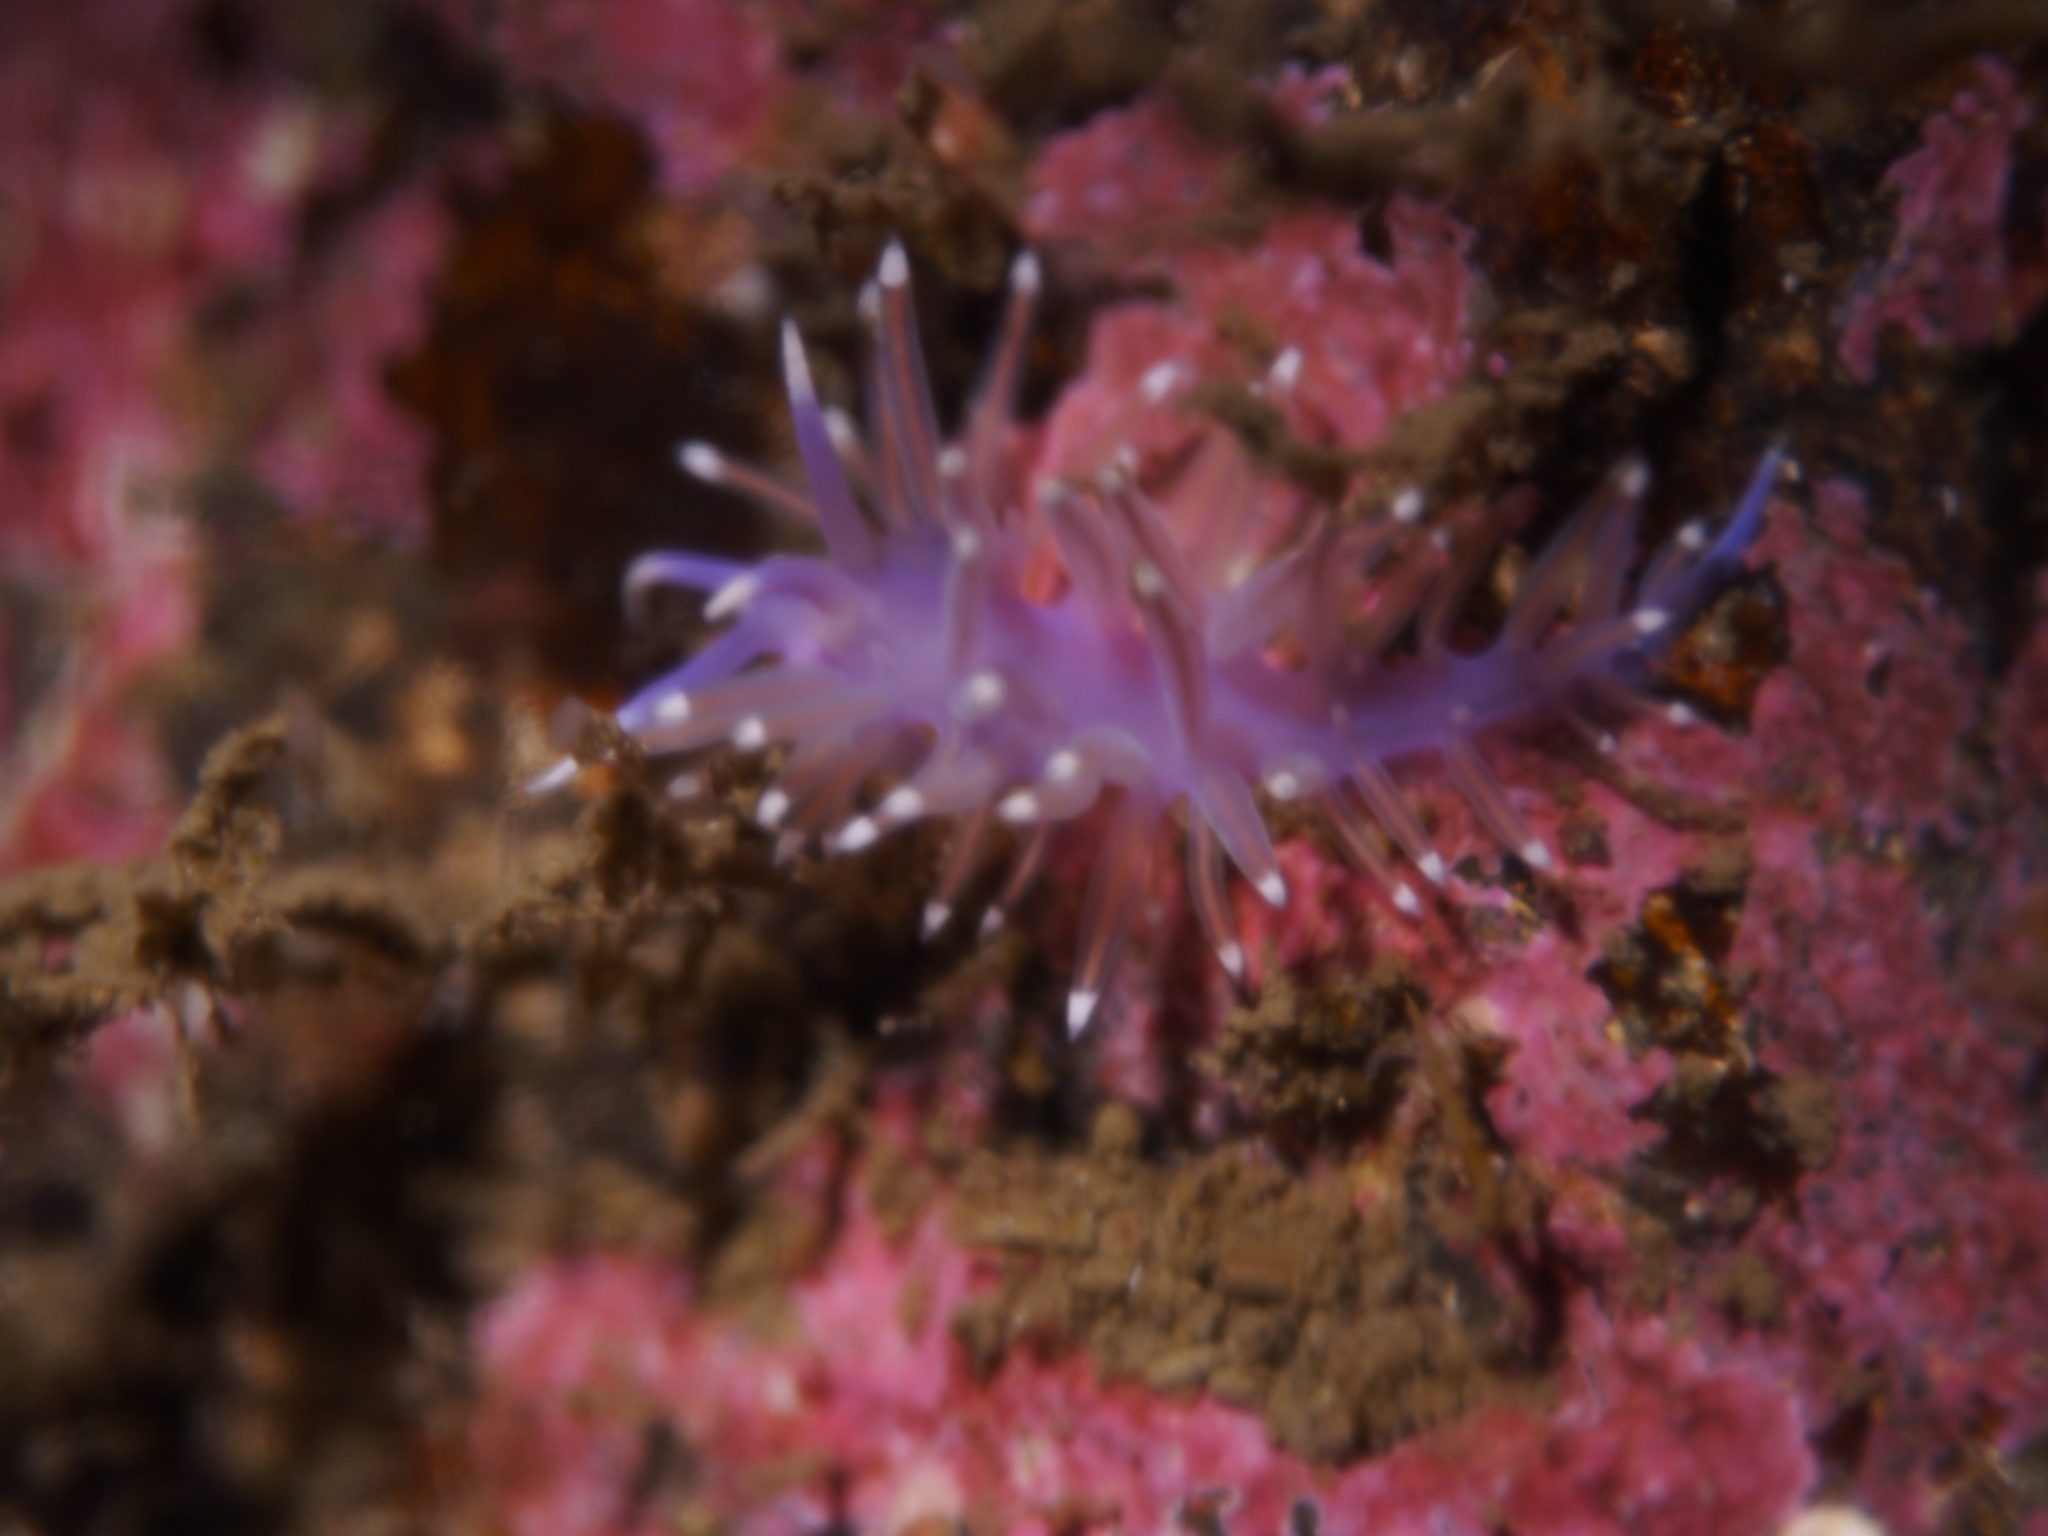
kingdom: Animalia
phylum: Mollusca
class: Gastropoda
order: Nudibranchia
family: Flabellinidae
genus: Edmundsella
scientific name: Edmundsella pedata
